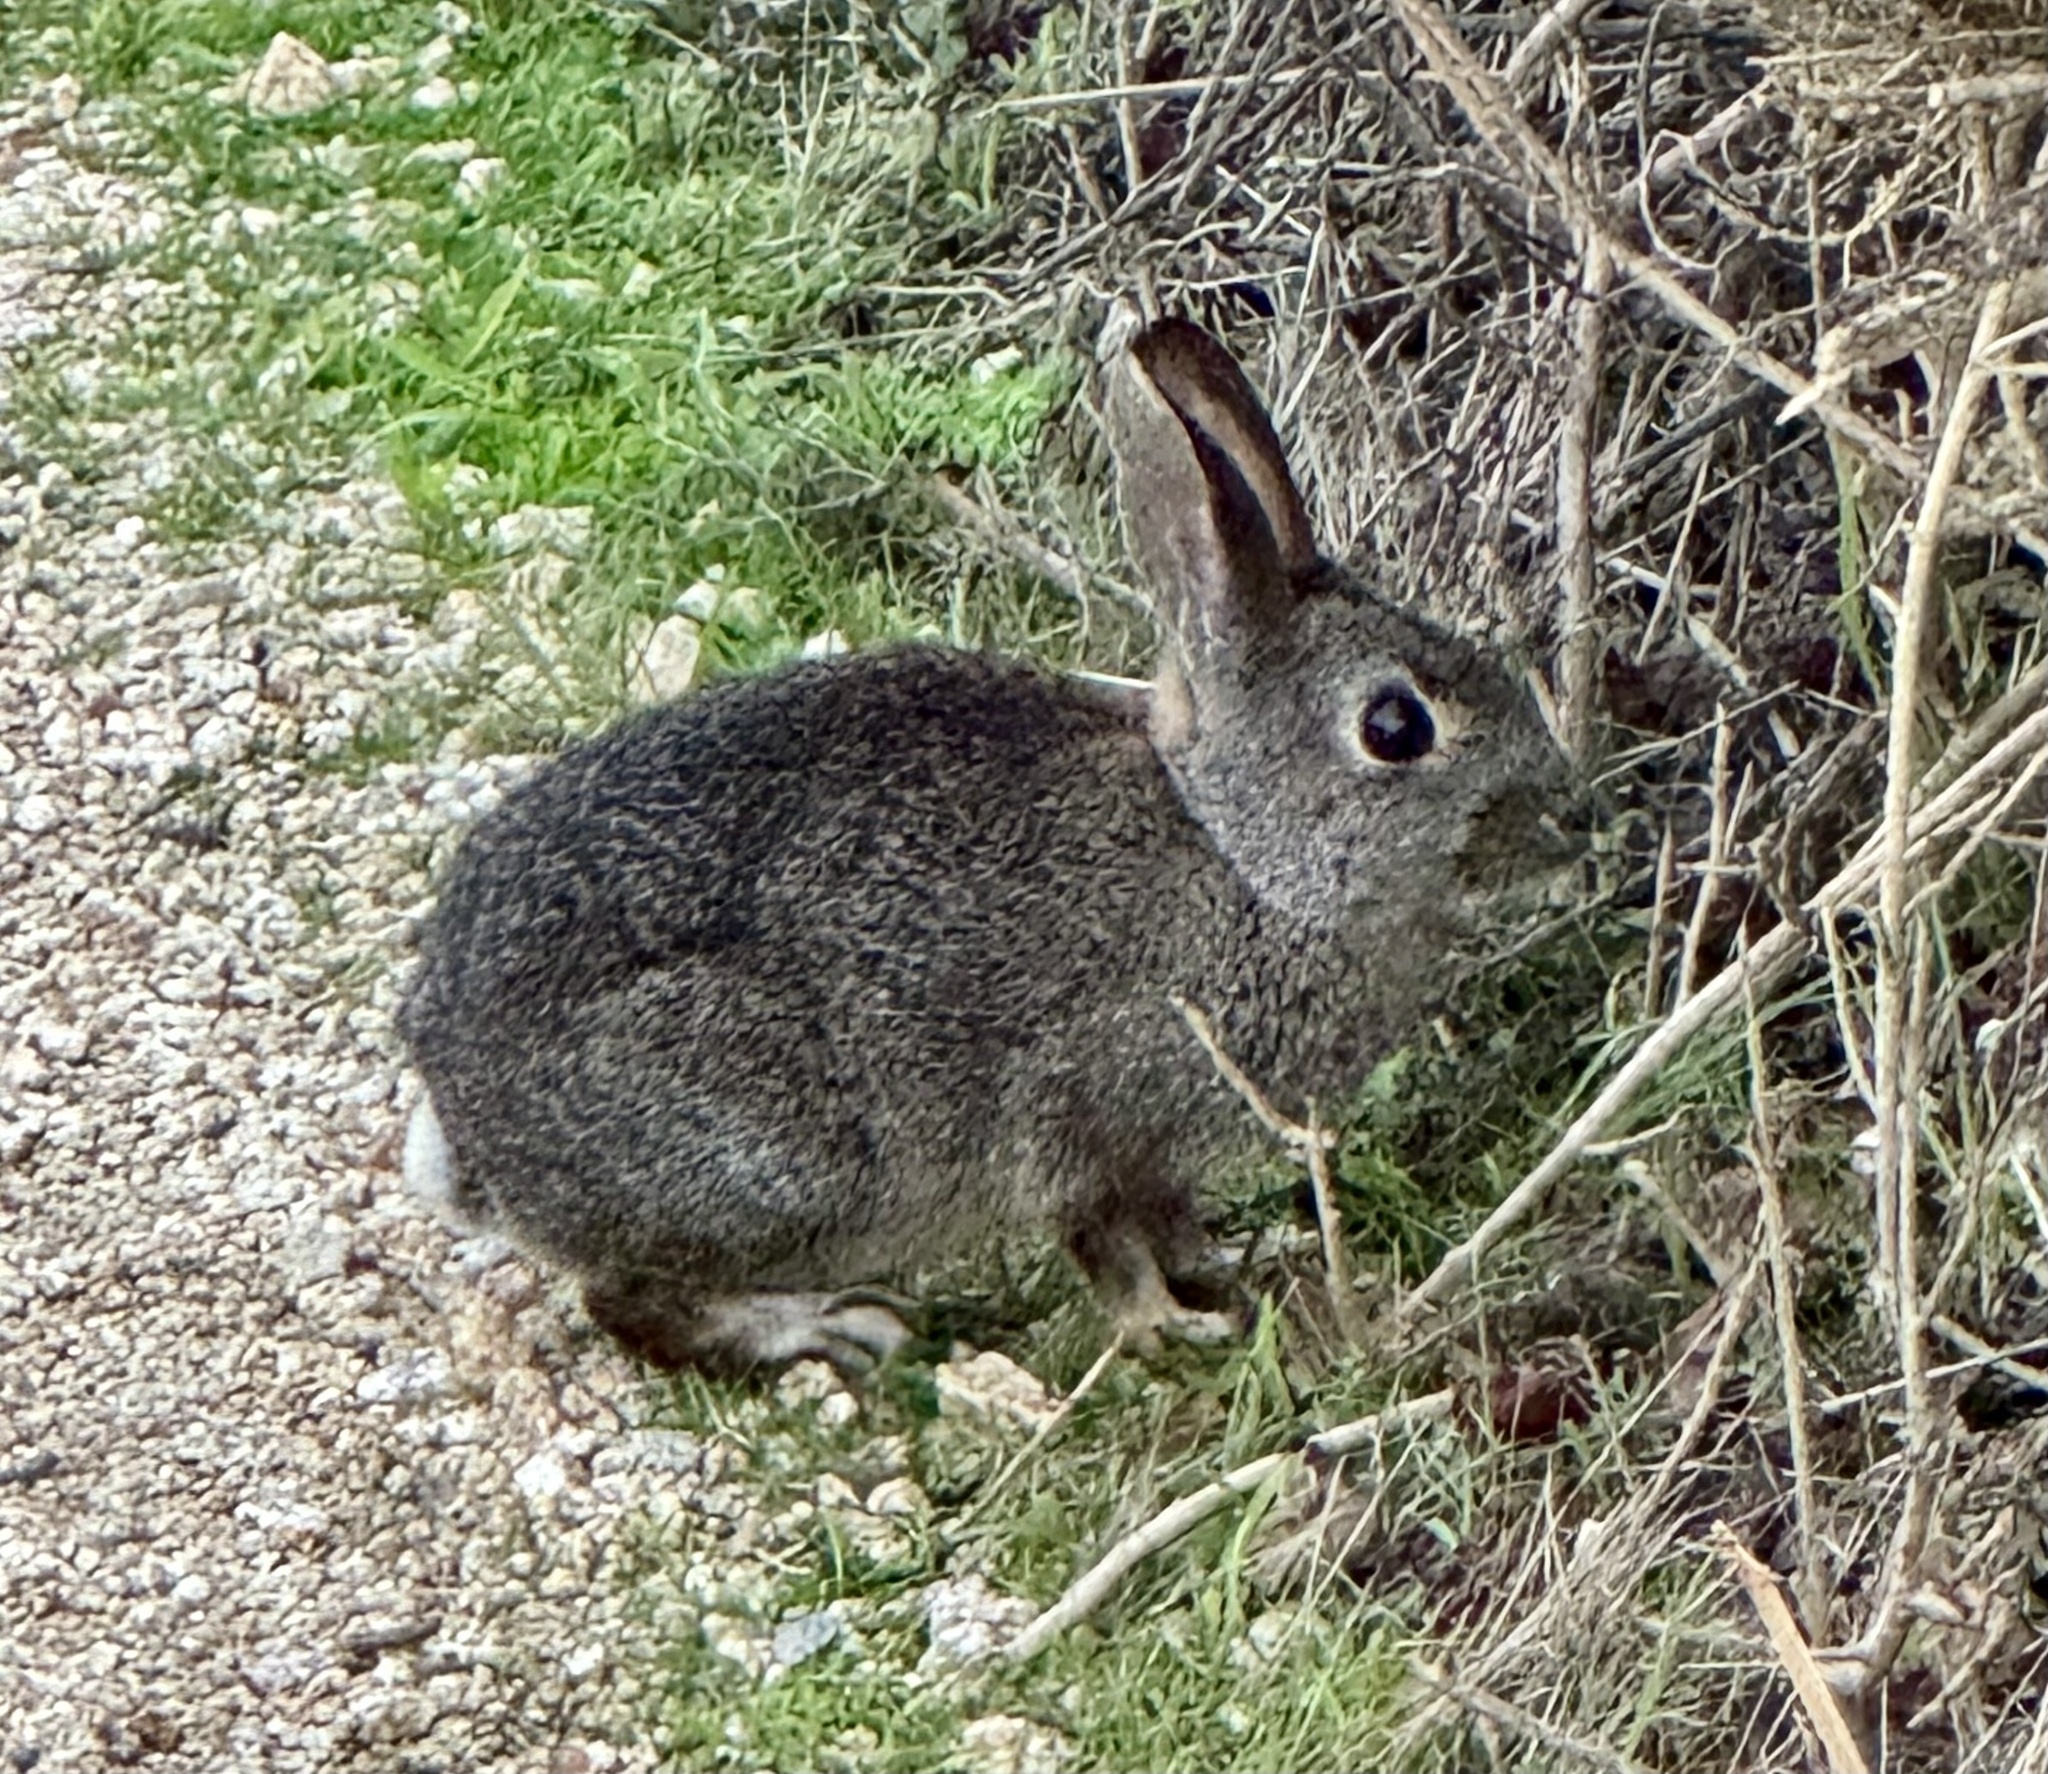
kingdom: Animalia
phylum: Chordata
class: Mammalia
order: Lagomorpha
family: Leporidae
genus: Sylvilagus
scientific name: Sylvilagus bachmani
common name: Brush rabbit
